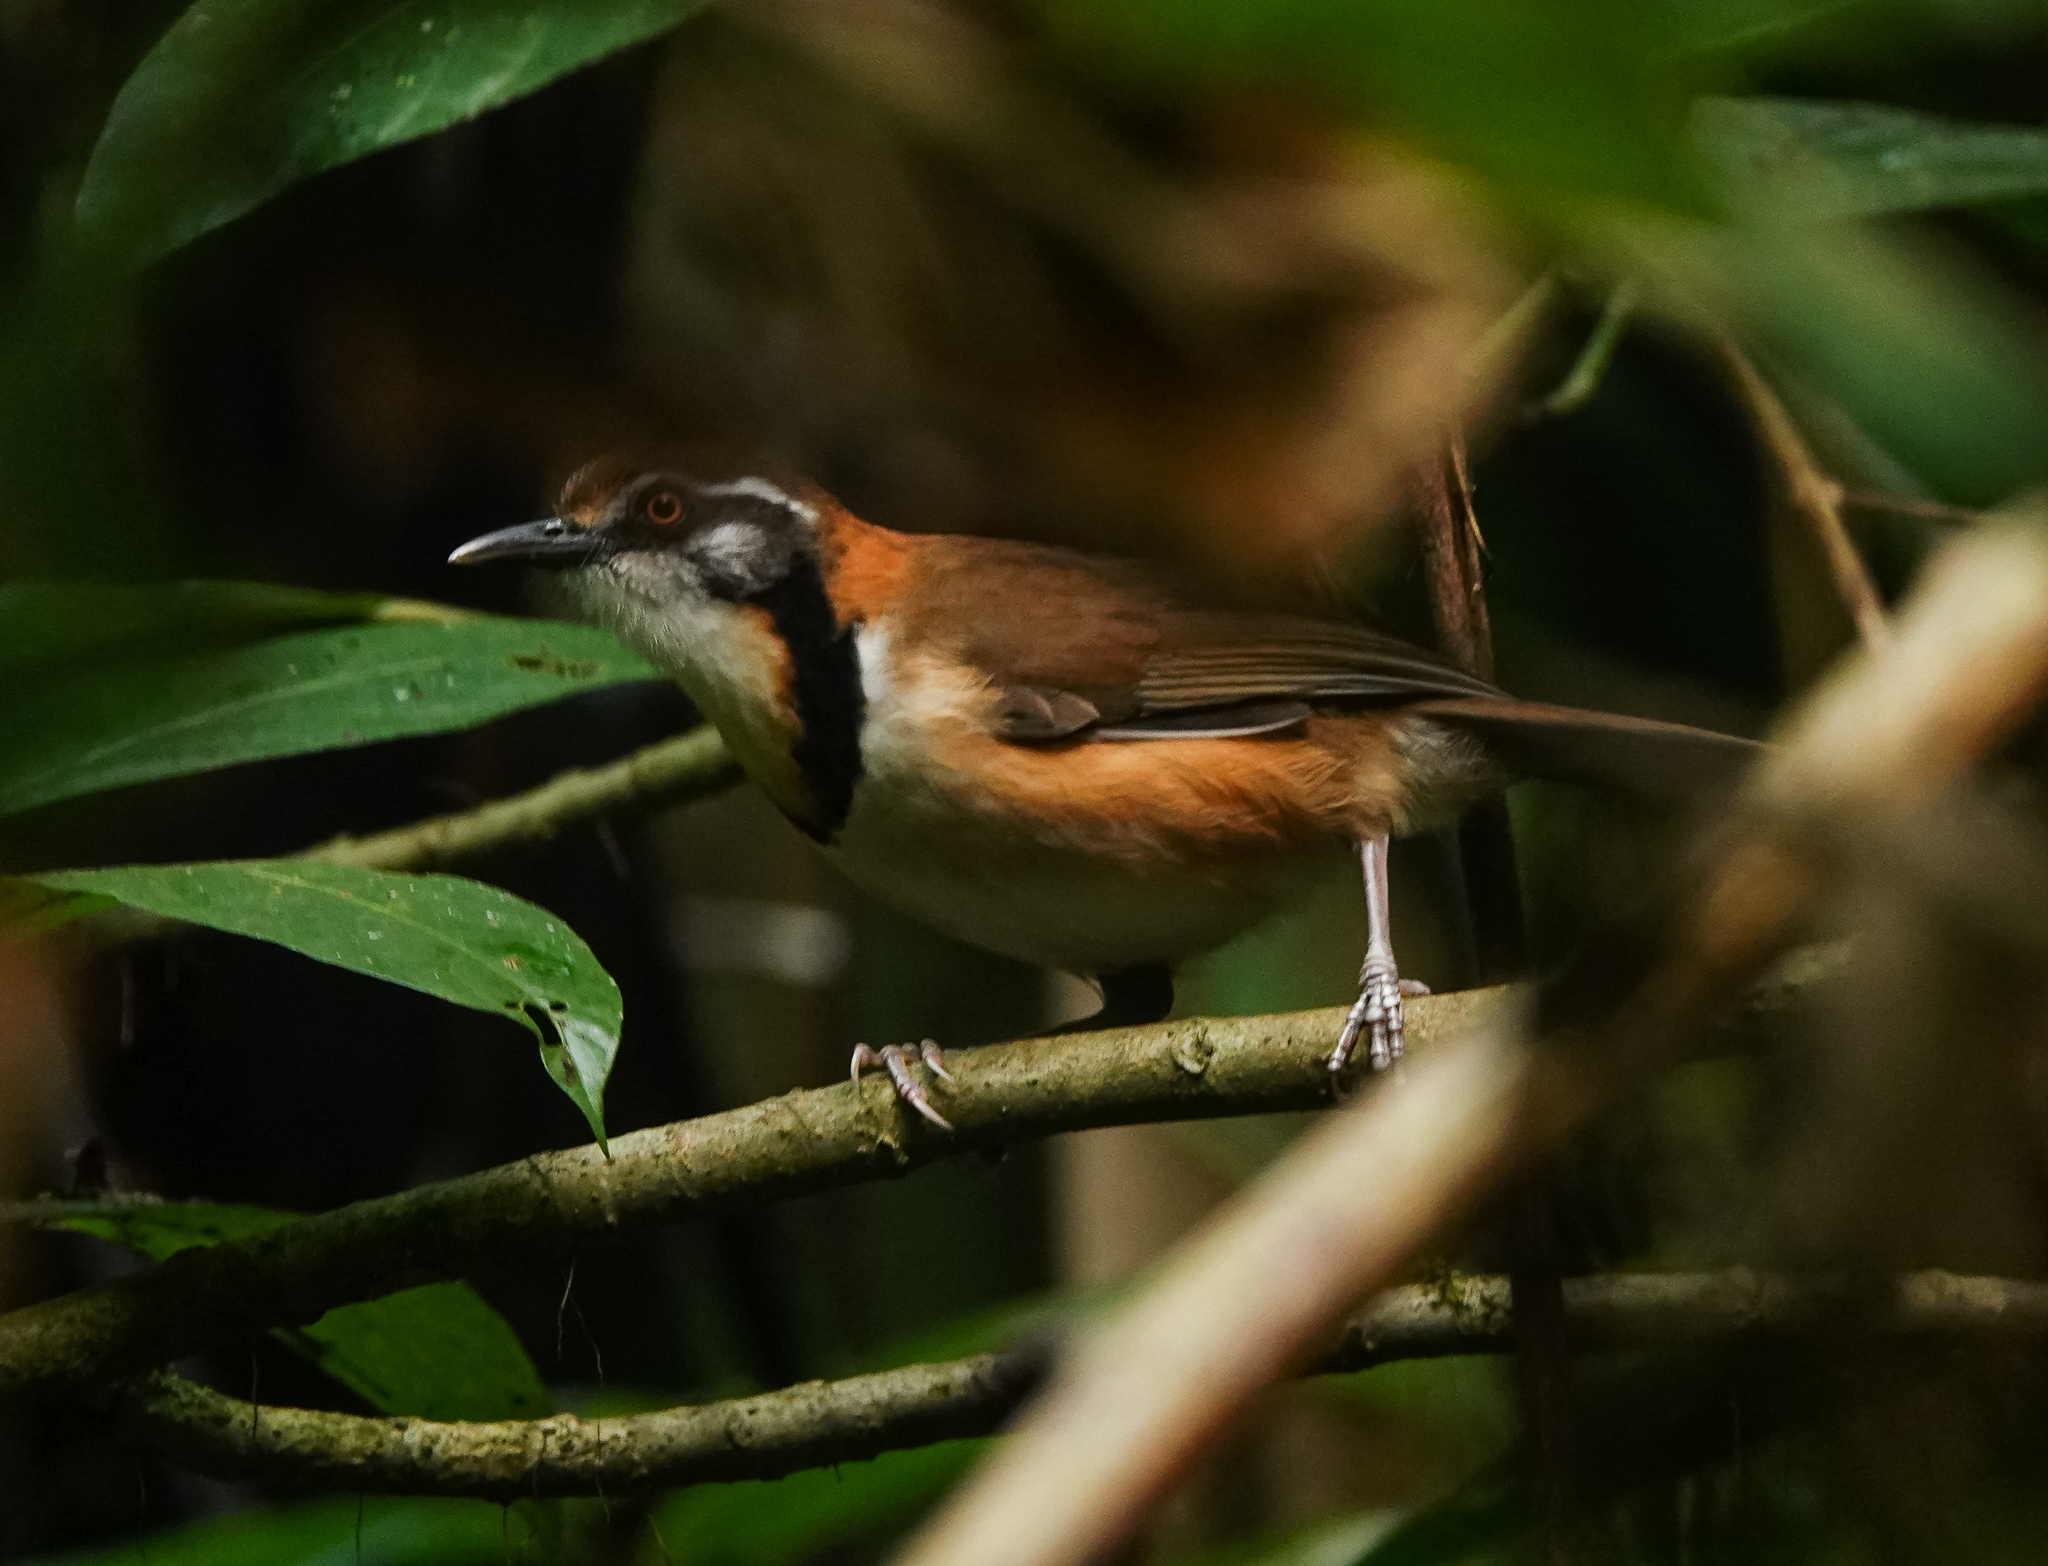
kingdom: Animalia
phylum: Chordata
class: Aves
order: Passeriformes
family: Leiothrichidae
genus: Garrulax
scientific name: Garrulax monileger
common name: Lesser necklaced laughingthrush
